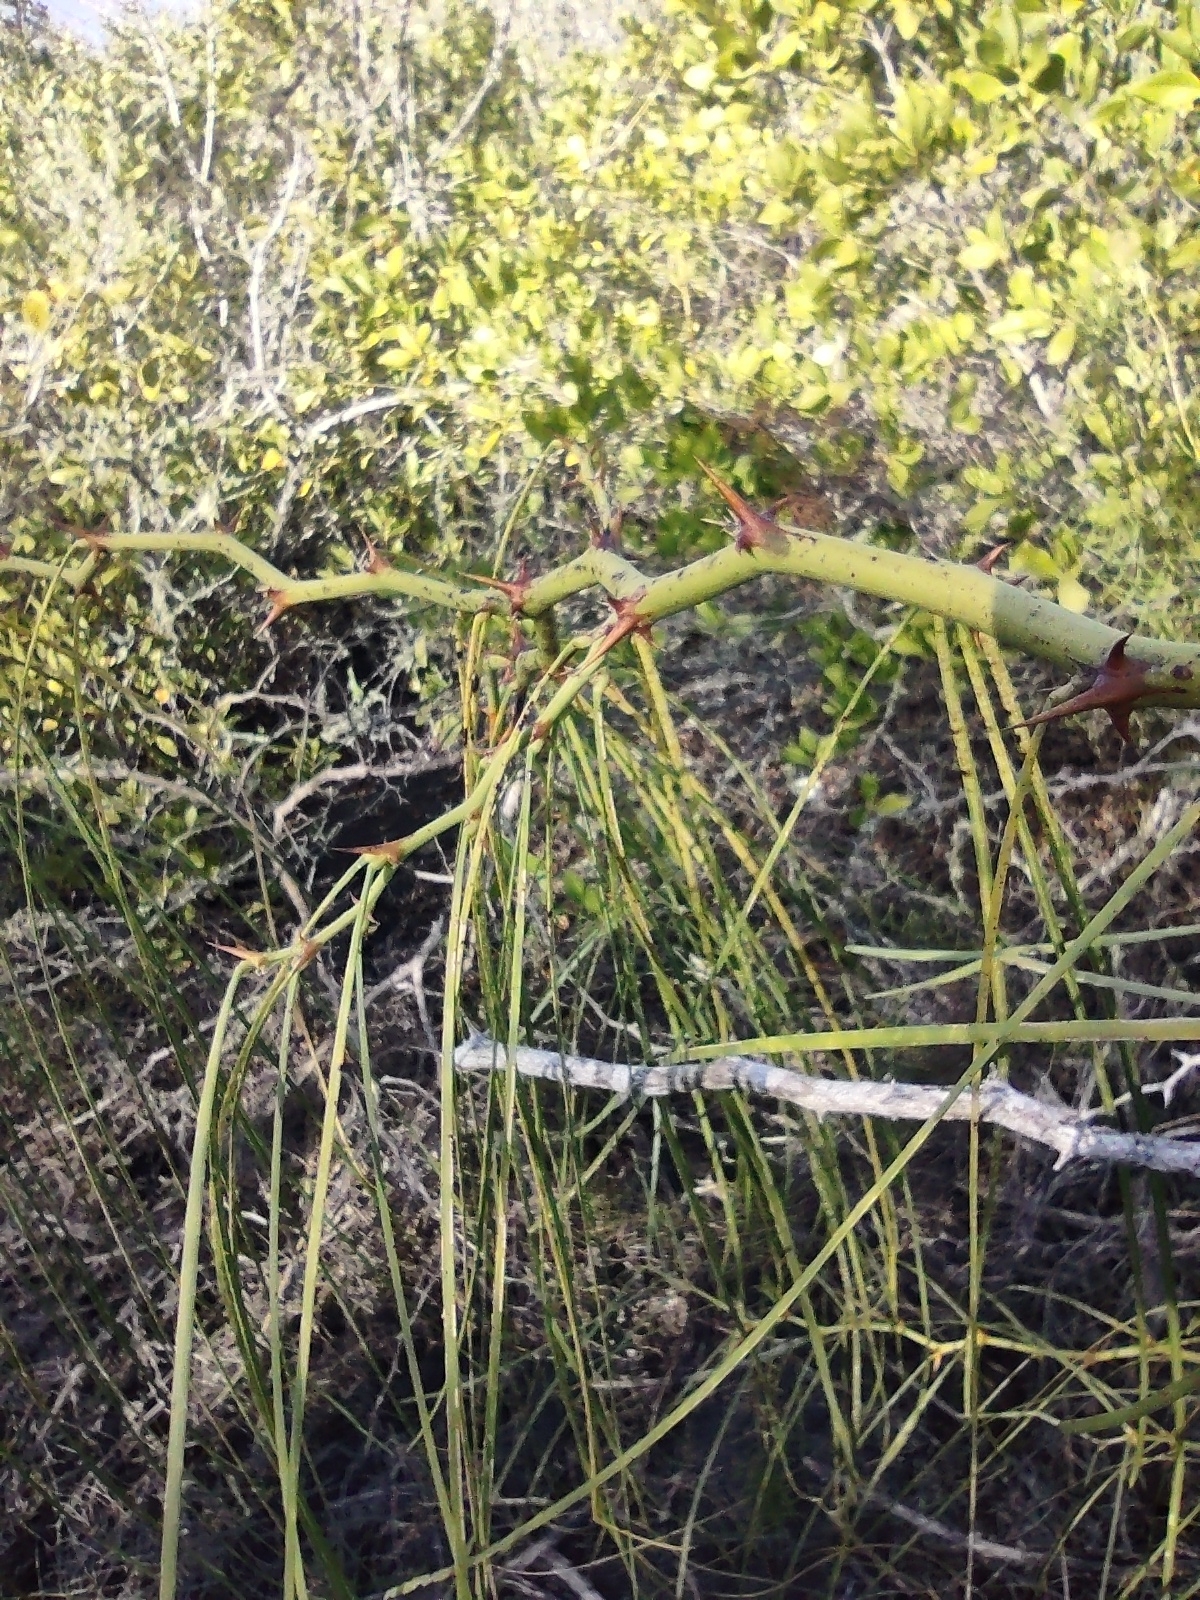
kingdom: Plantae
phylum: Tracheophyta
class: Magnoliopsida
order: Fabales
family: Fabaceae
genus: Parkinsonia
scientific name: Parkinsonia aculeata
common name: Jerusalem thorn
